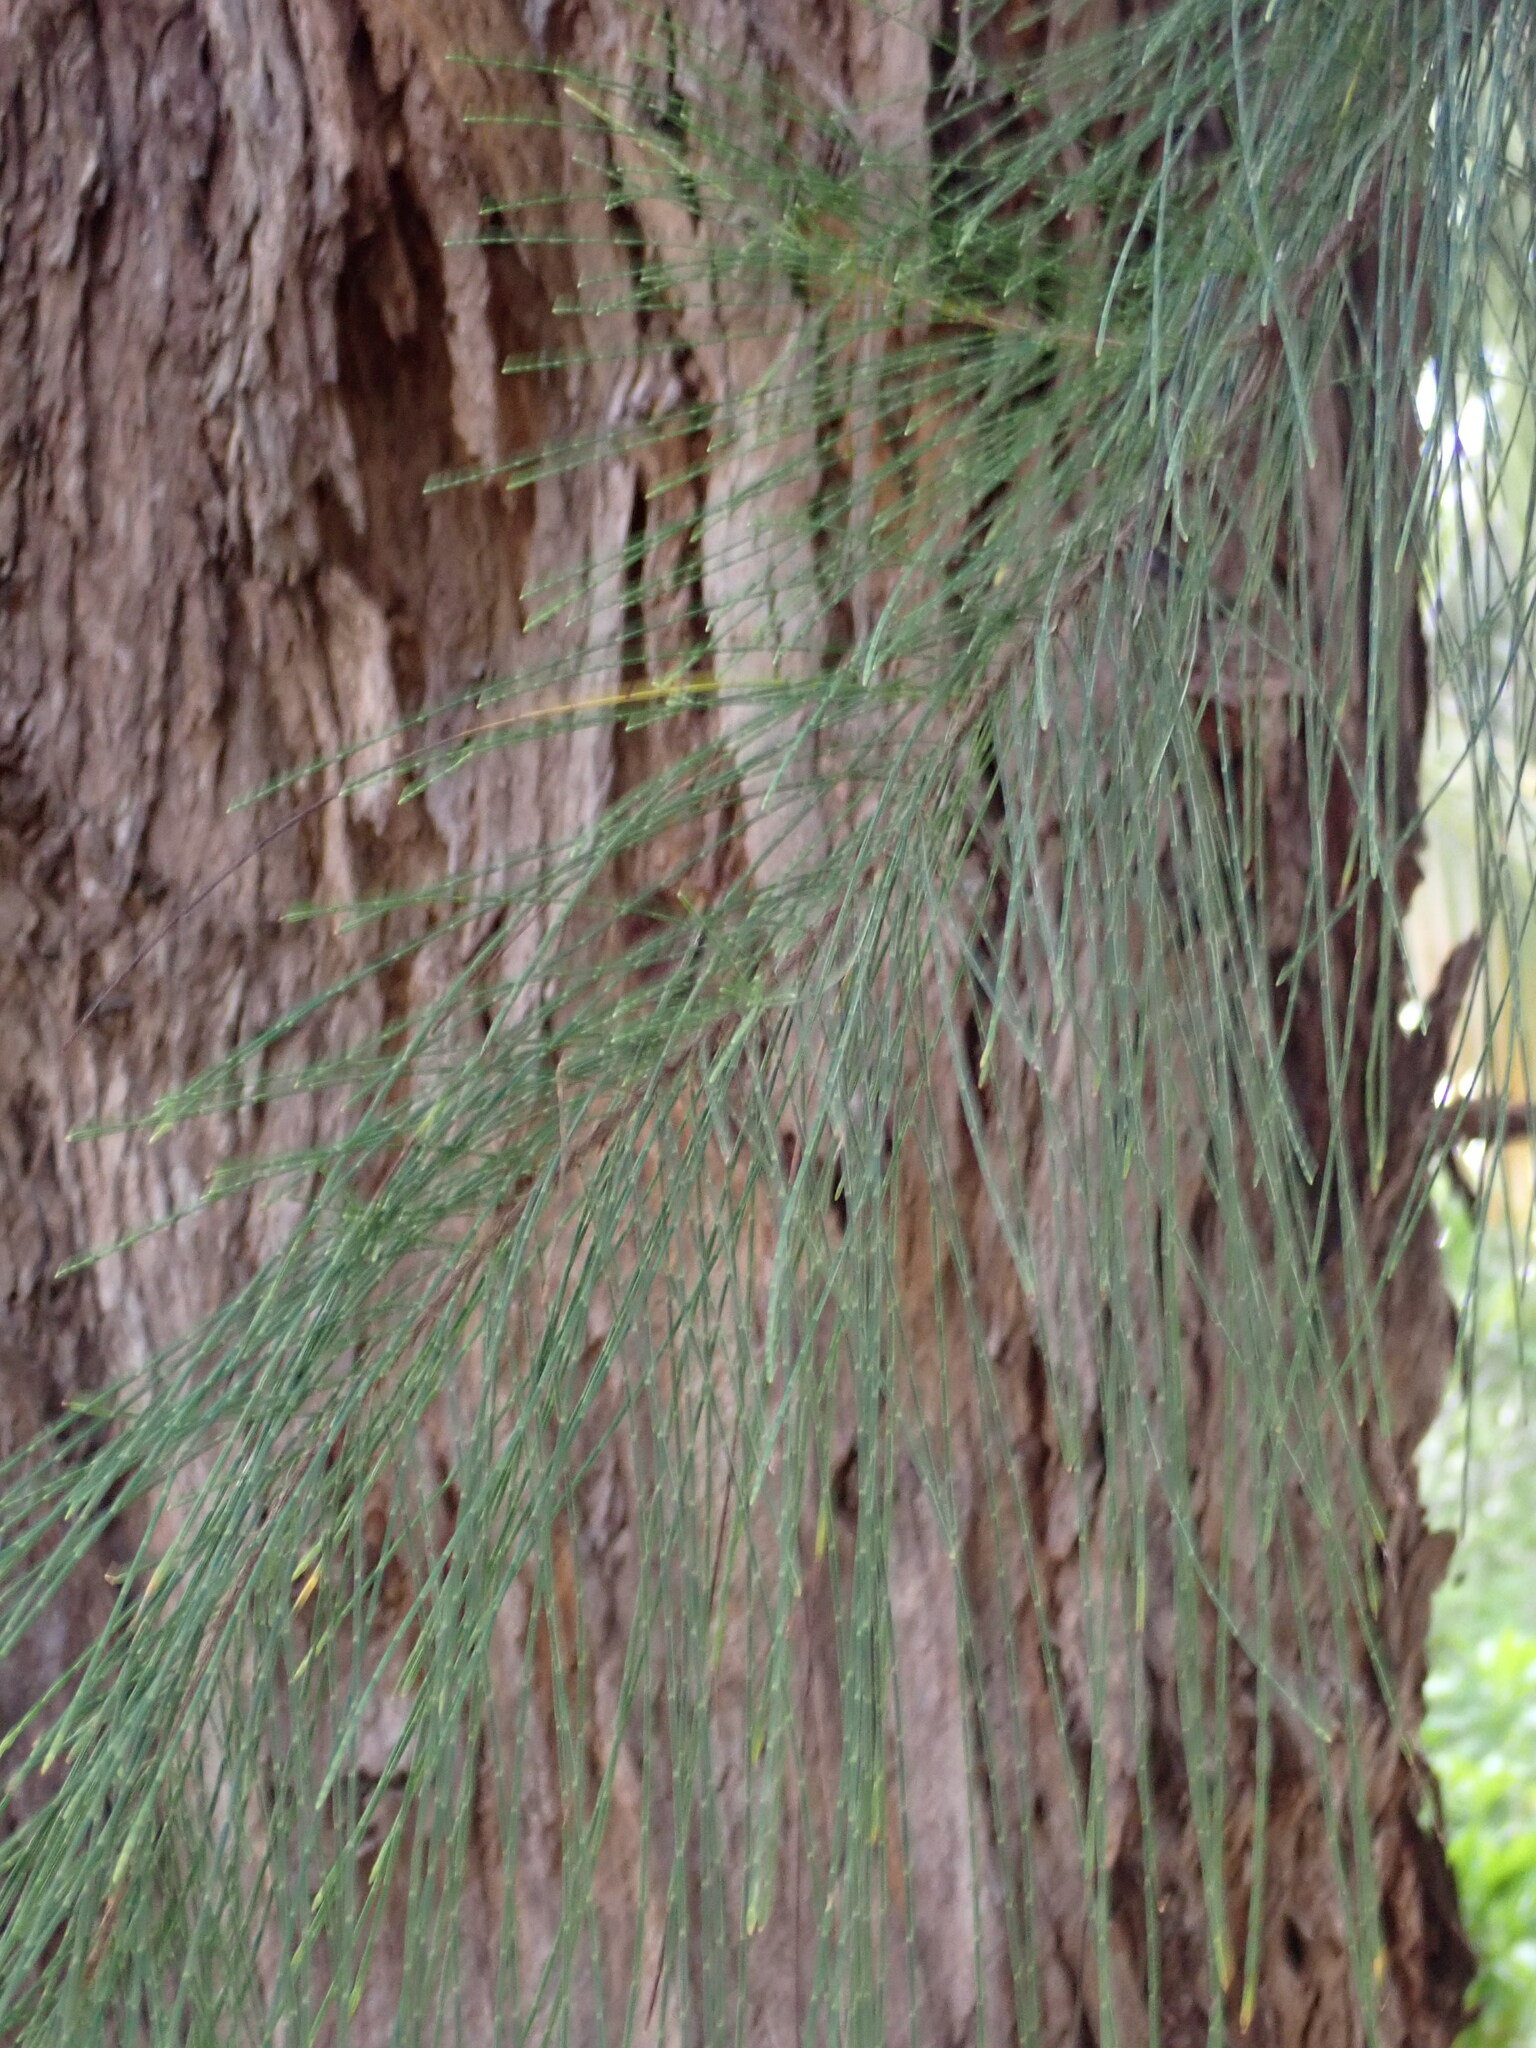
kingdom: Plantae
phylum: Tracheophyta
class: Magnoliopsida
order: Fagales
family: Casuarinaceae
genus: Casuarina
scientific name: Casuarina equisetifolia
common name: Beach sheoak
